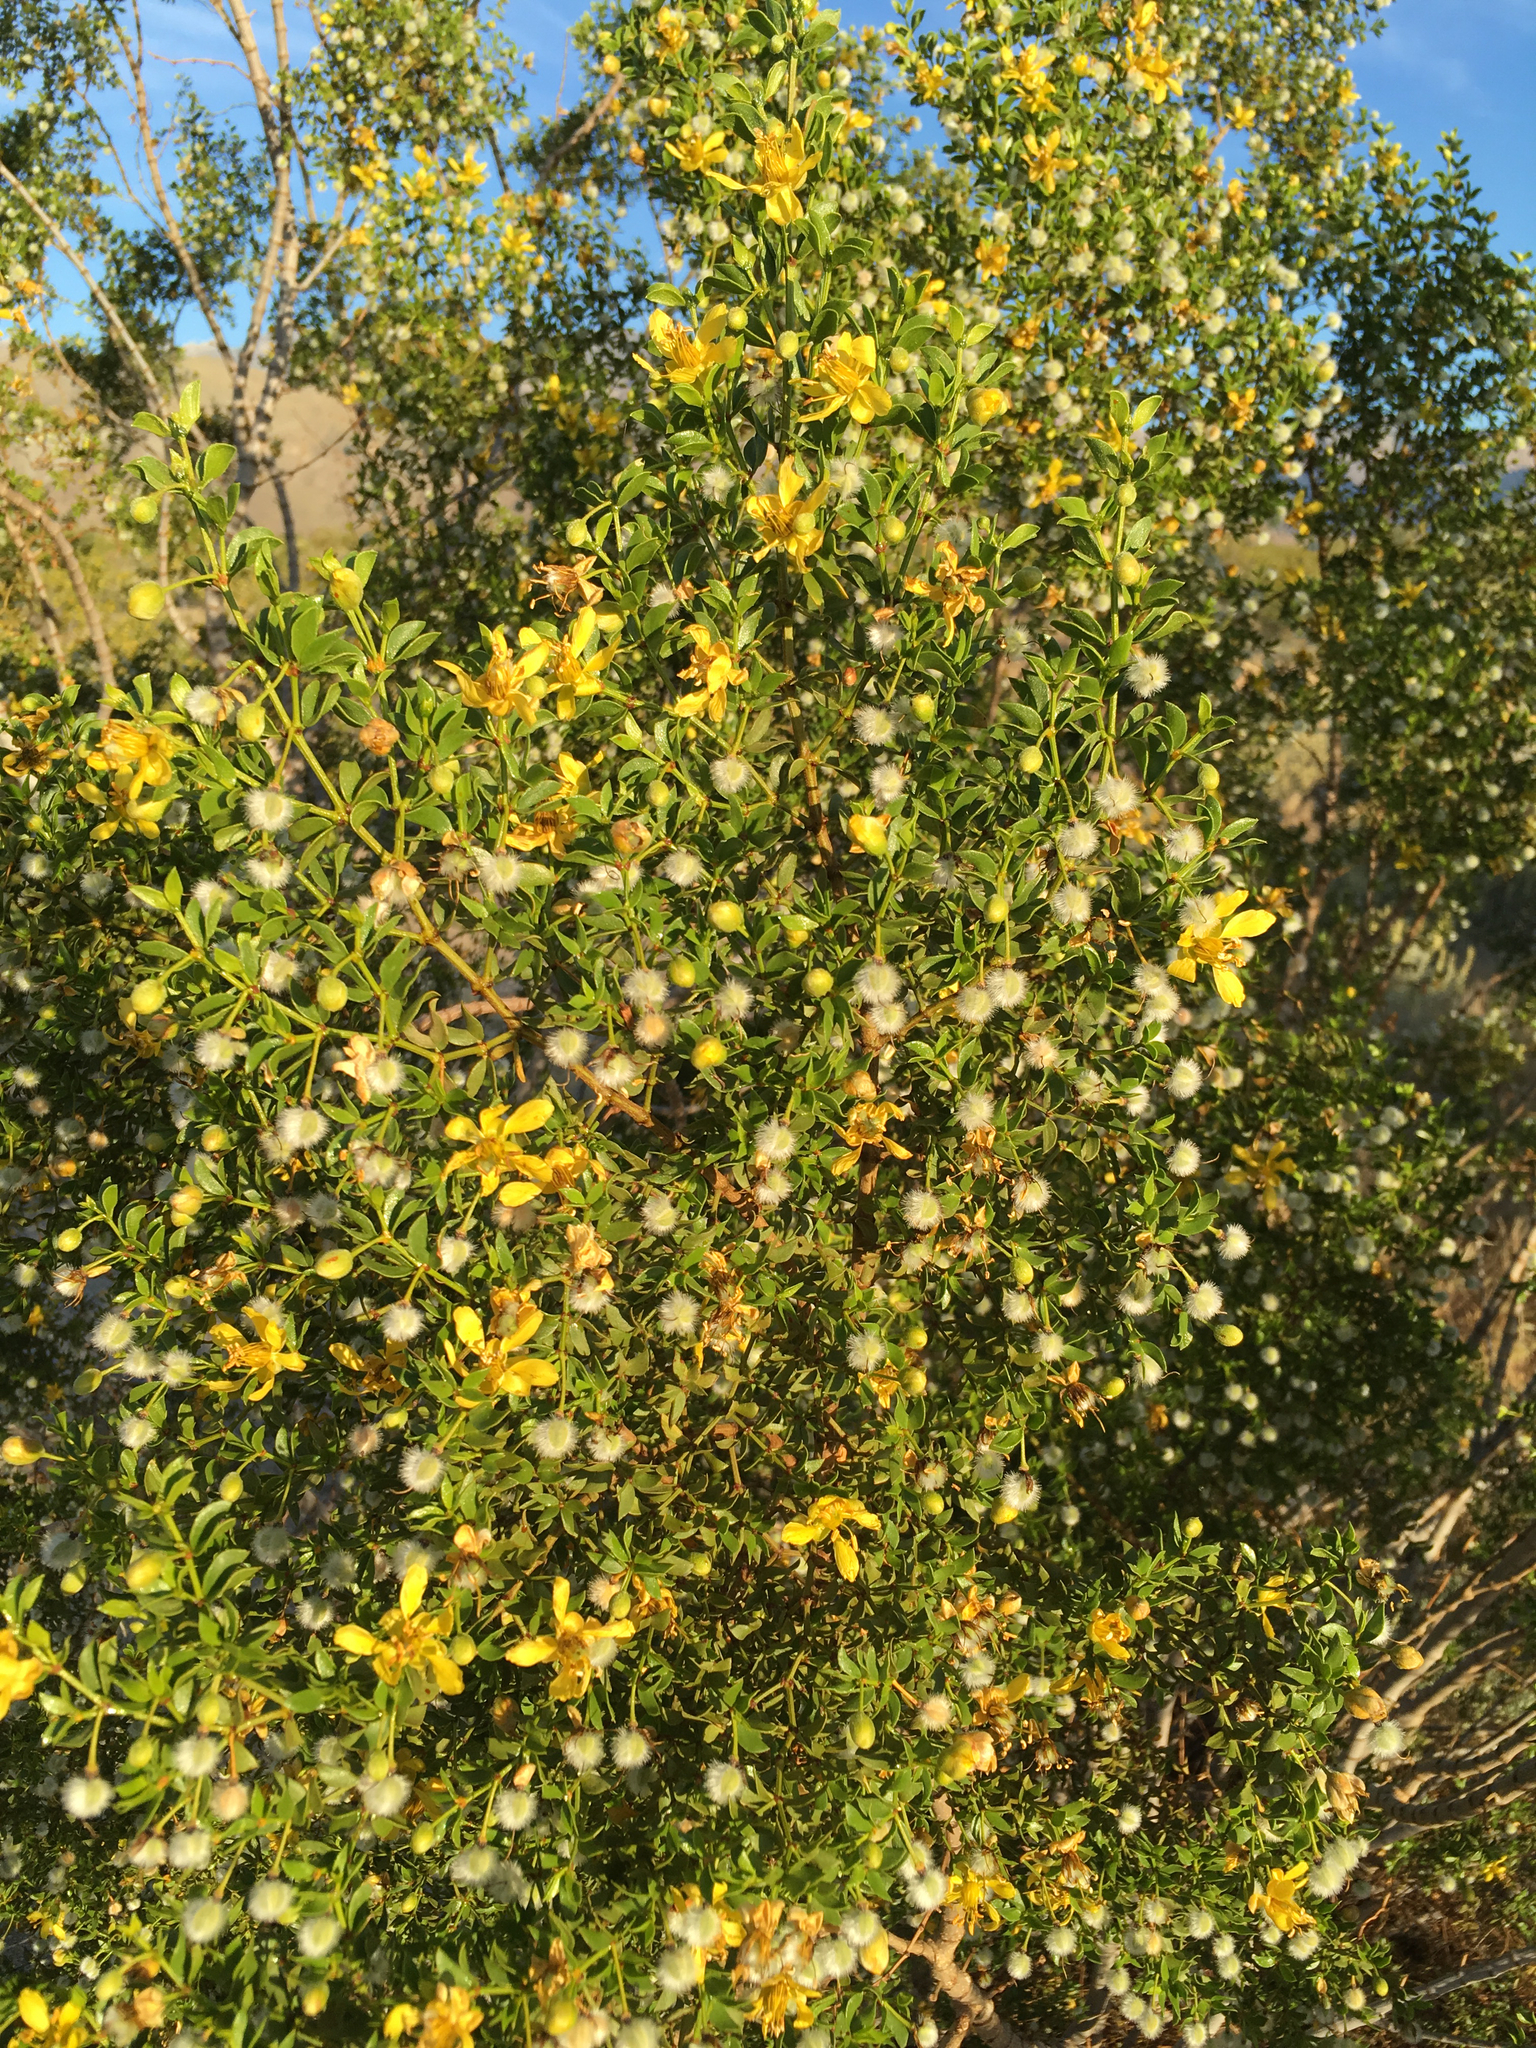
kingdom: Plantae
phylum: Tracheophyta
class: Magnoliopsida
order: Zygophyllales
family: Zygophyllaceae
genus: Larrea
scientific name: Larrea tridentata
